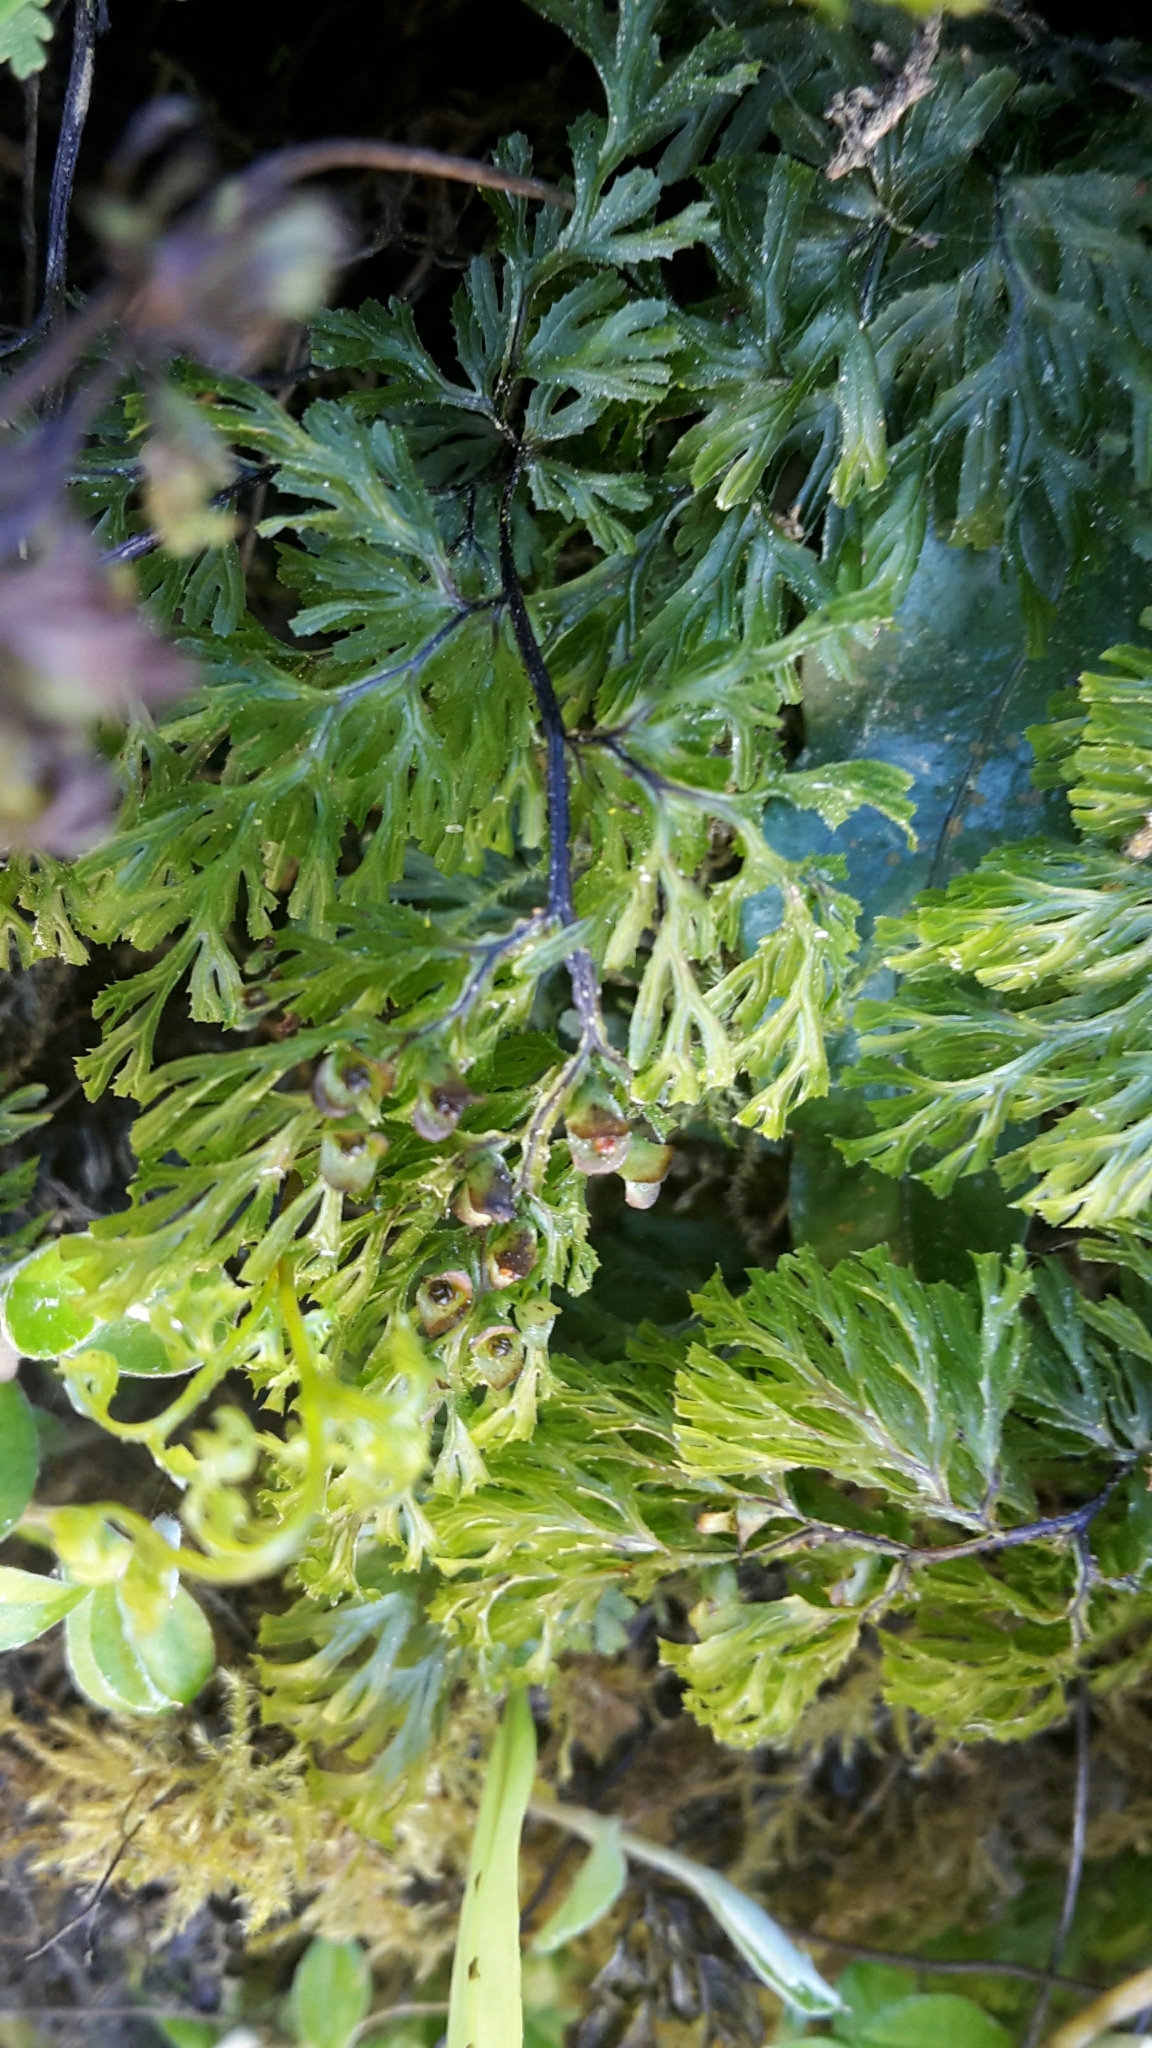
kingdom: Plantae
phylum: Tracheophyta
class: Polypodiopsida
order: Hymenophyllales
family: Hymenophyllaceae
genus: Hymenophyllum
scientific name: Hymenophyllum multifidum
